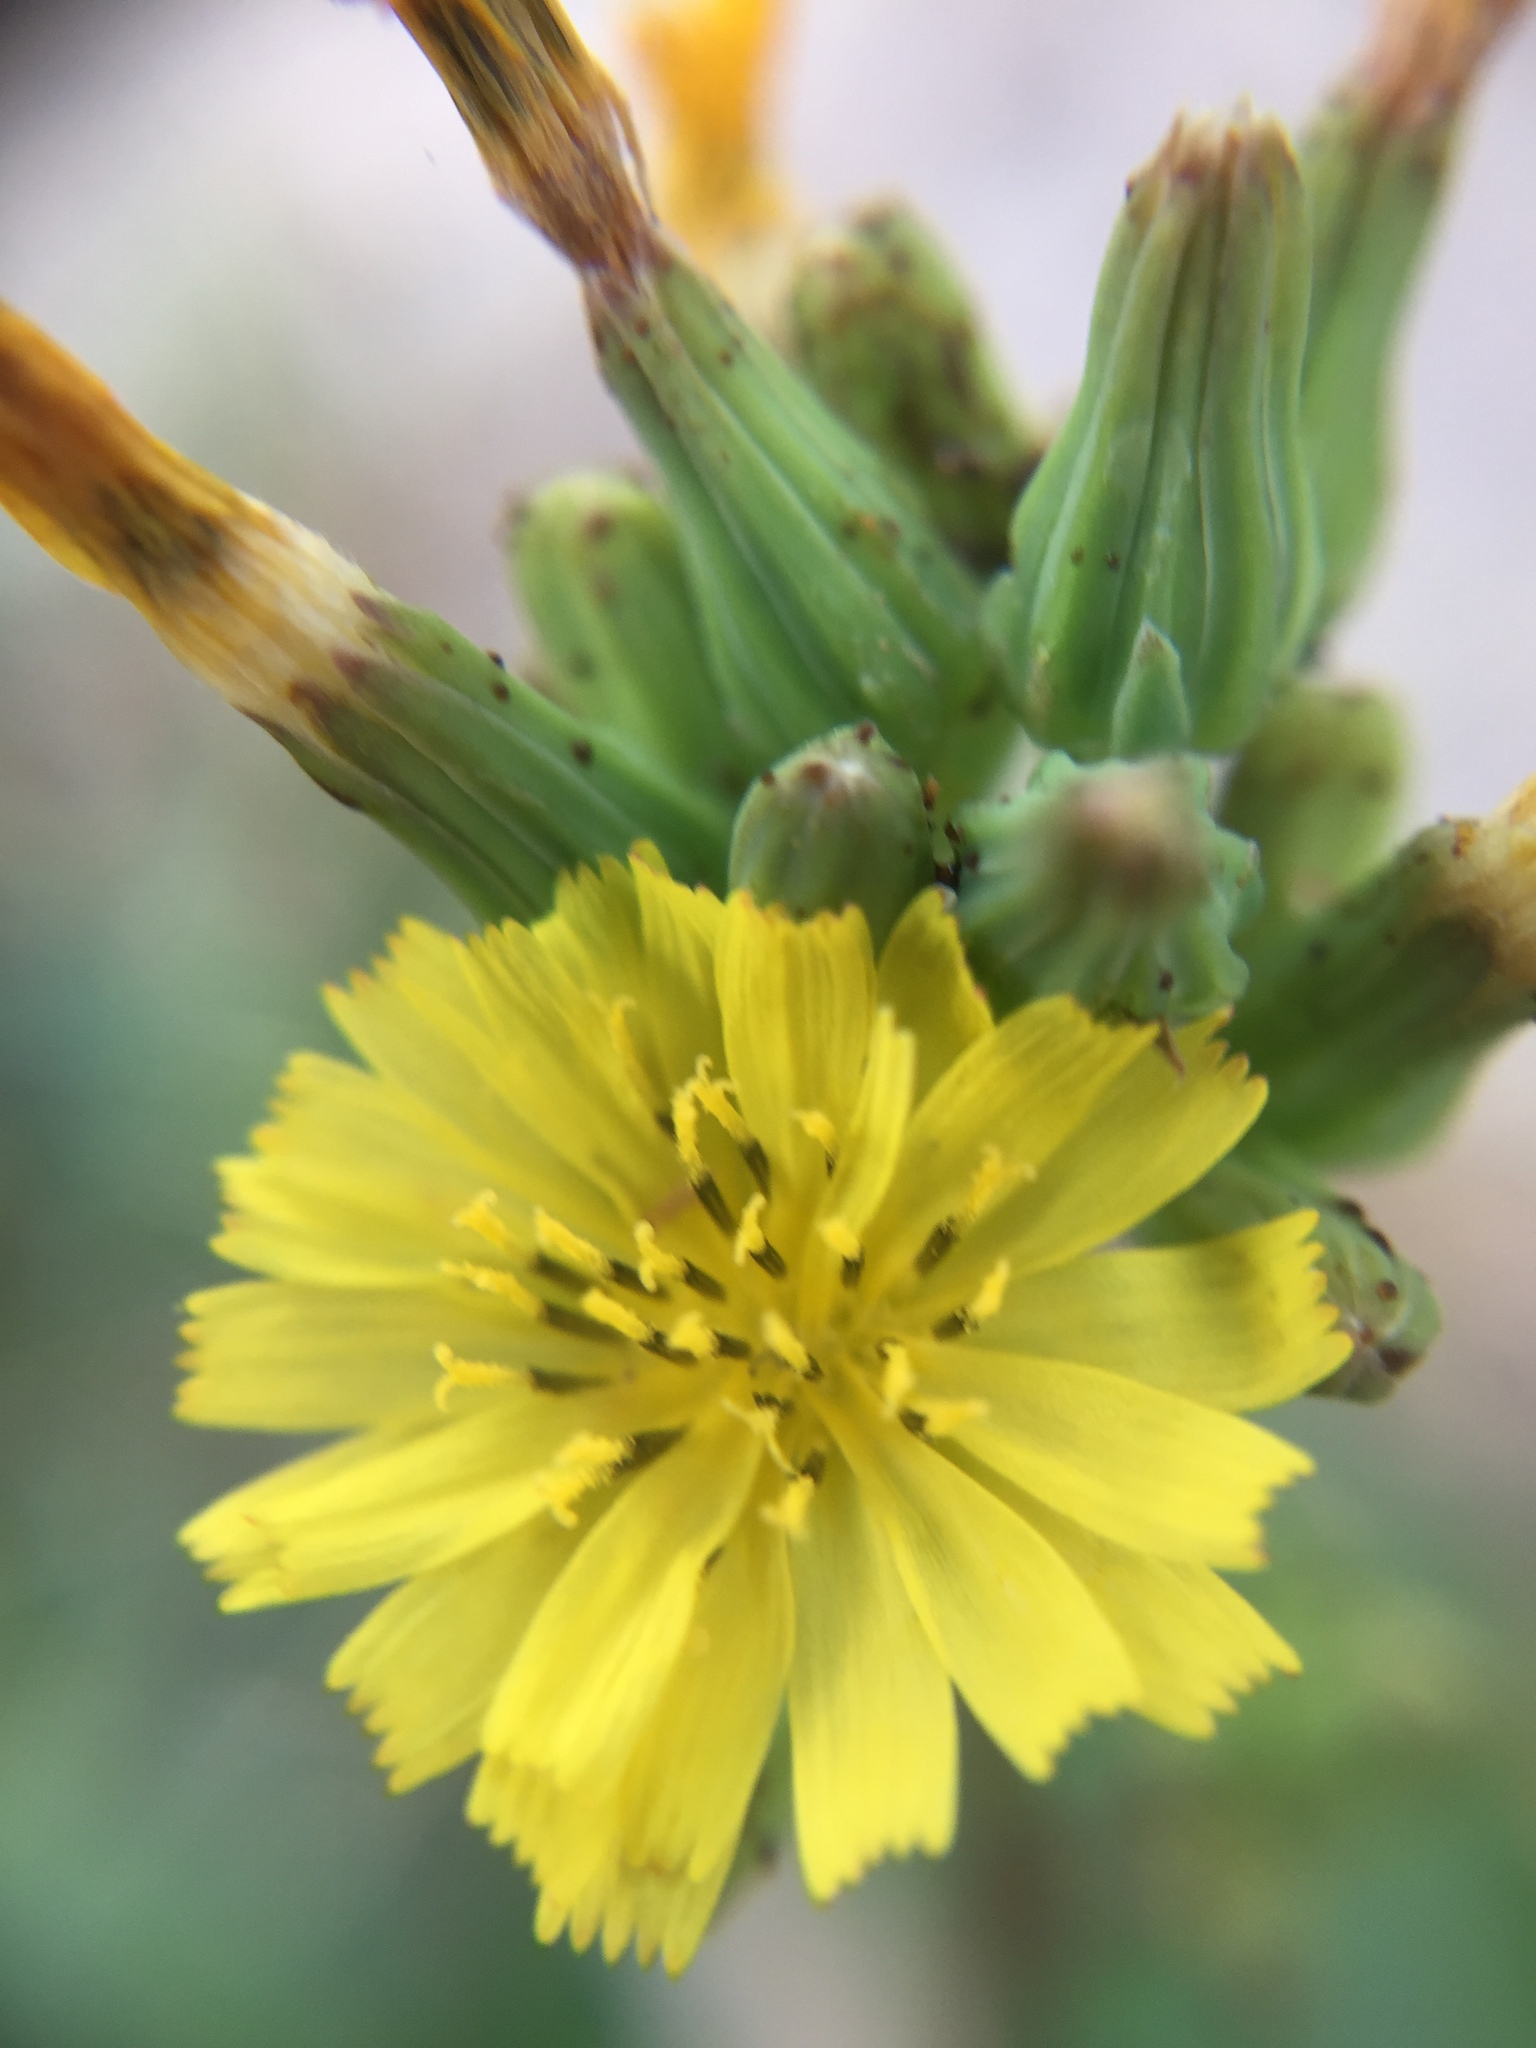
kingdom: Plantae
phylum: Tracheophyta
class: Magnoliopsida
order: Asterales
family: Asteraceae
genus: Youngia
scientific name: Youngia japonica
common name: Oriental false hawksbeard
